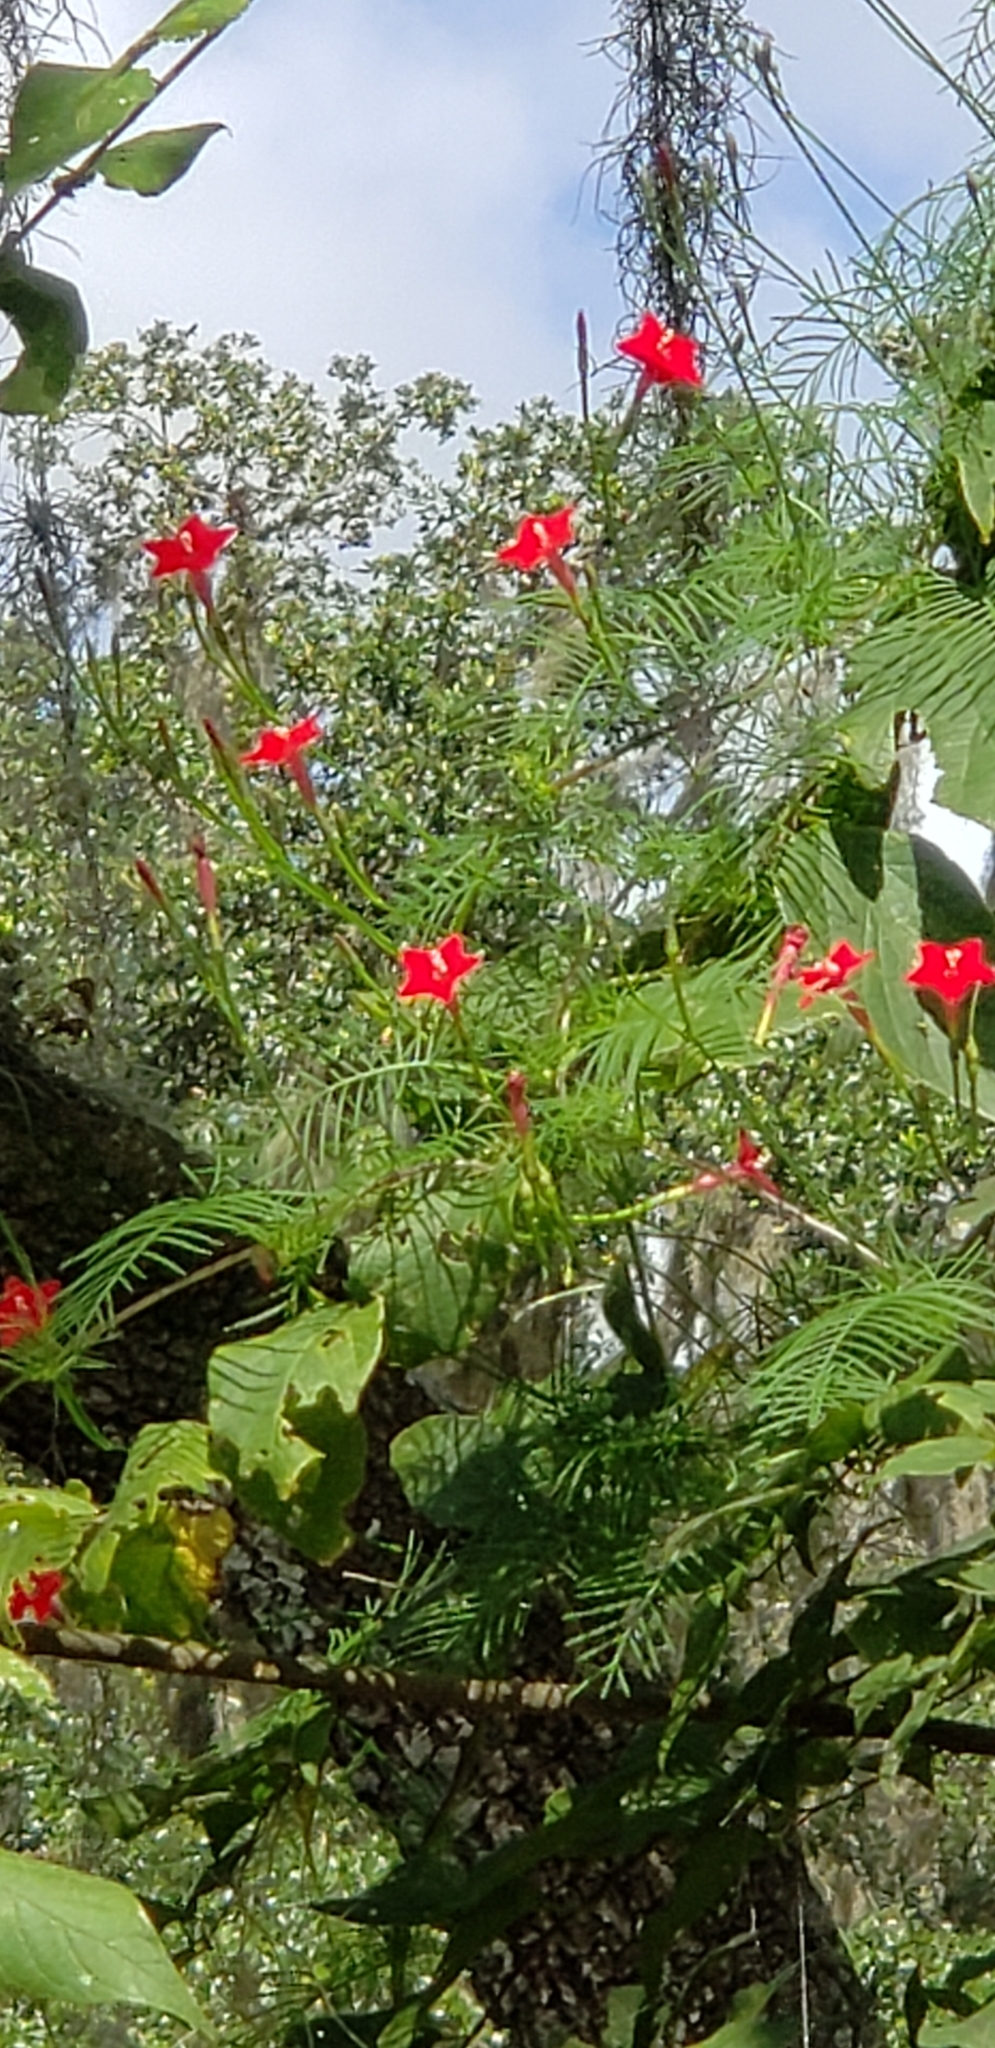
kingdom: Plantae
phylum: Tracheophyta
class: Magnoliopsida
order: Solanales
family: Convolvulaceae
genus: Ipomoea
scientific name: Ipomoea quamoclit
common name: Cypress vine
